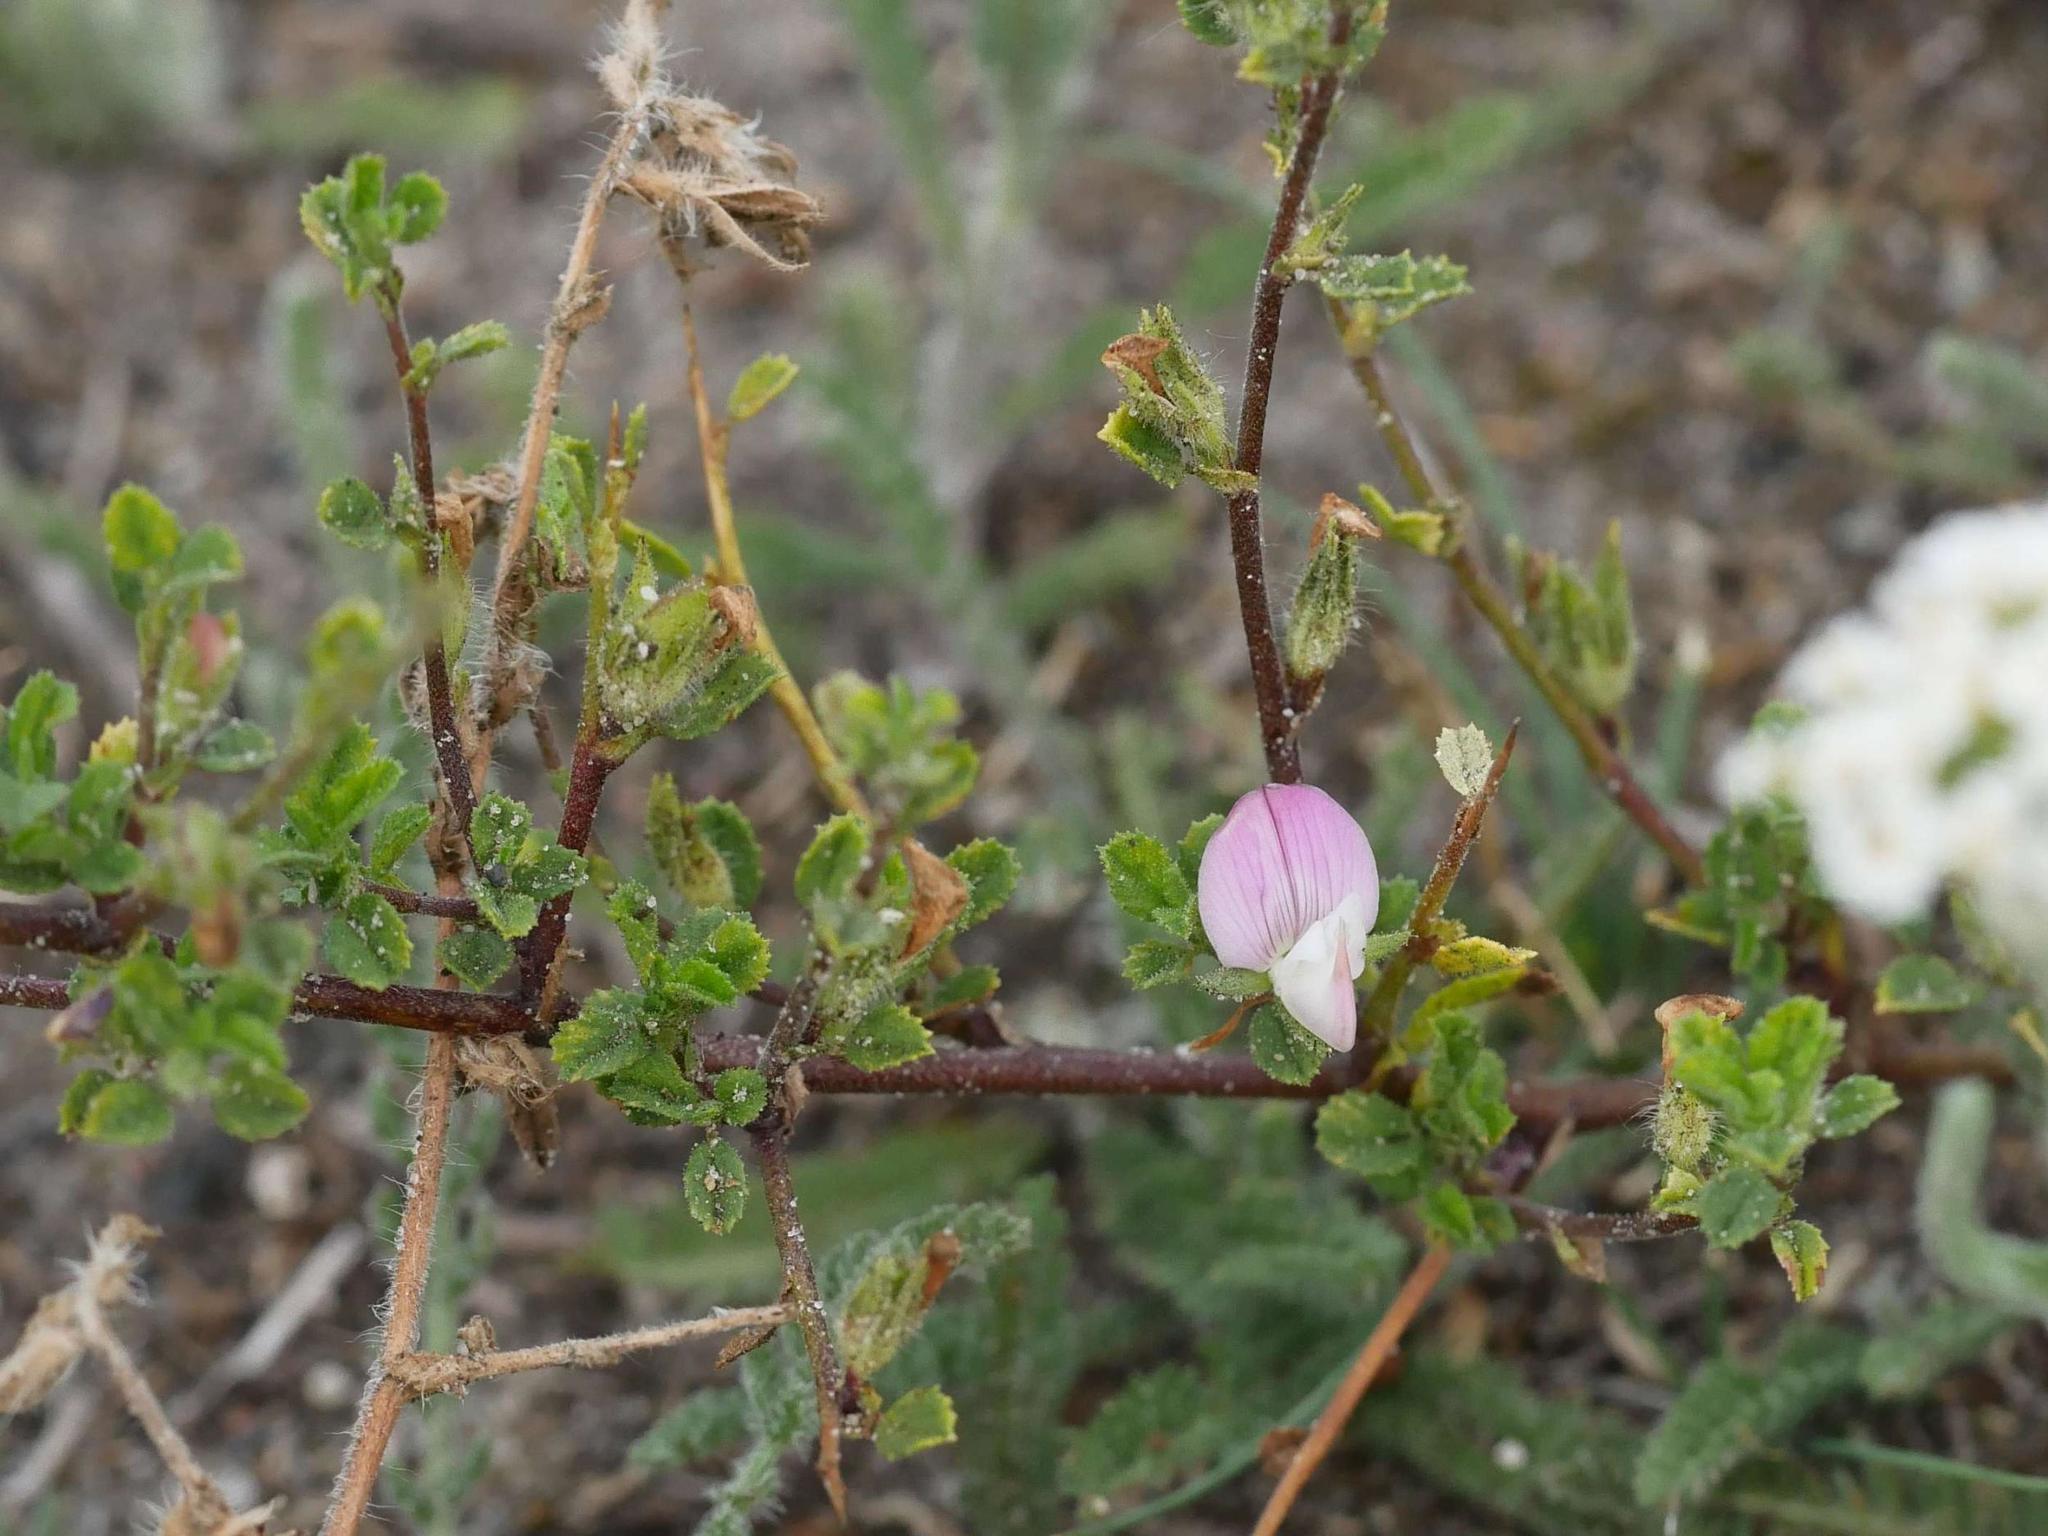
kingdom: Plantae
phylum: Tracheophyta
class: Magnoliopsida
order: Fabales
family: Fabaceae
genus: Ononis
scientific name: Ononis spinosa
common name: Spiny restharrow
